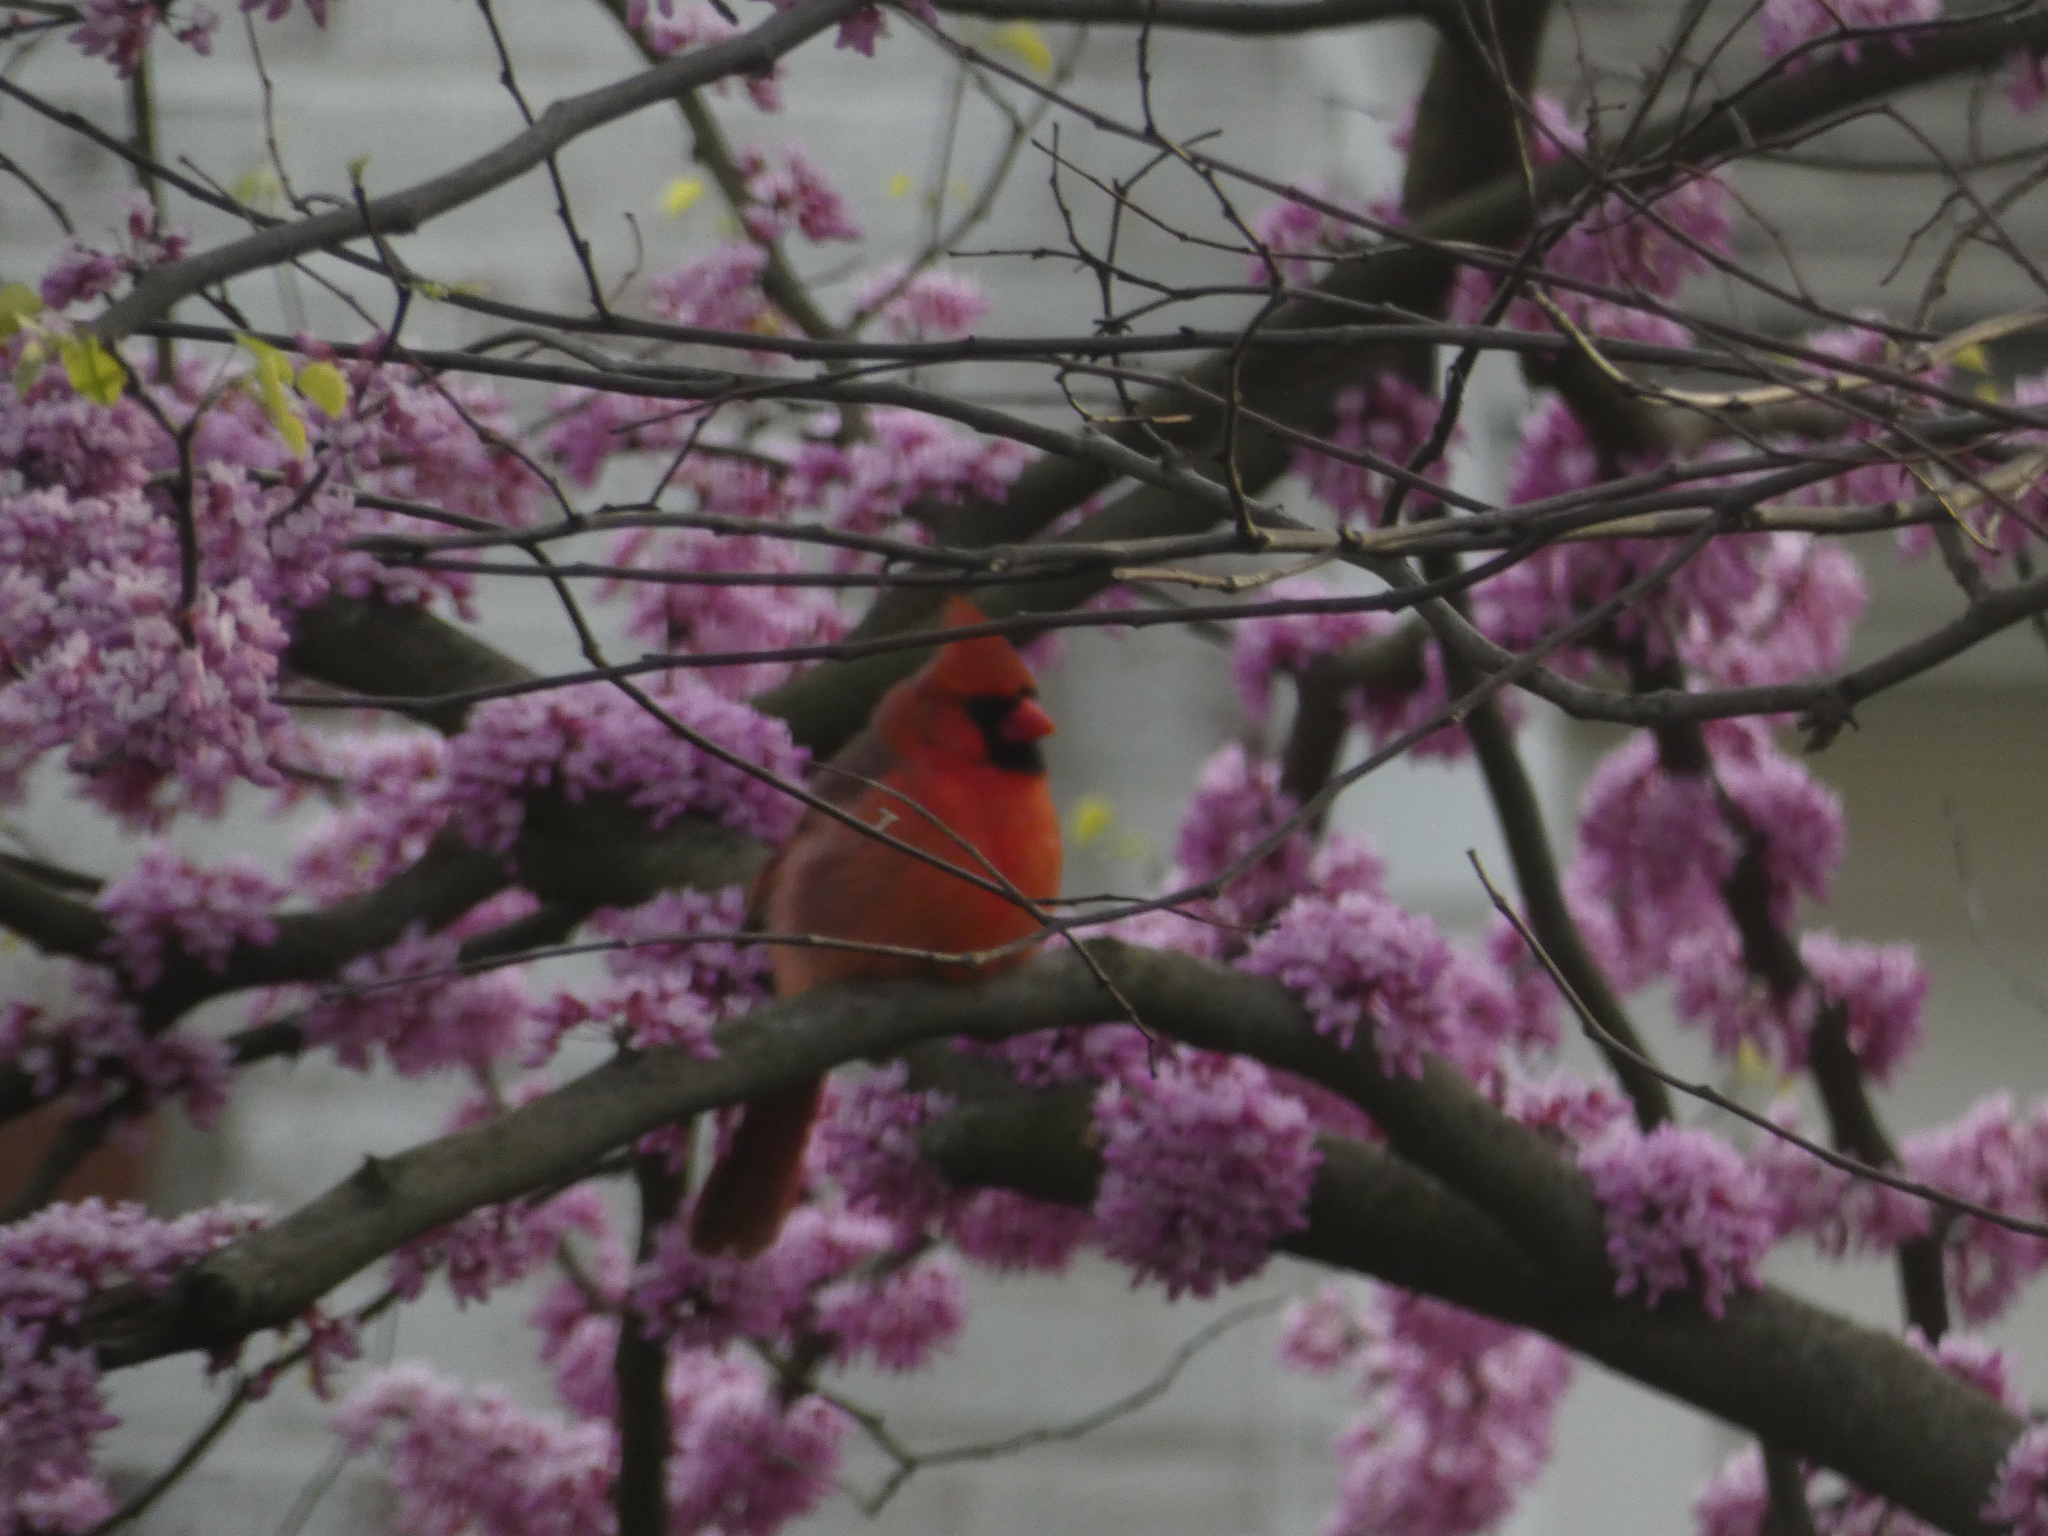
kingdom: Animalia
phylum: Chordata
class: Aves
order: Passeriformes
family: Cardinalidae
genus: Cardinalis
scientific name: Cardinalis cardinalis
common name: Northern cardinal
